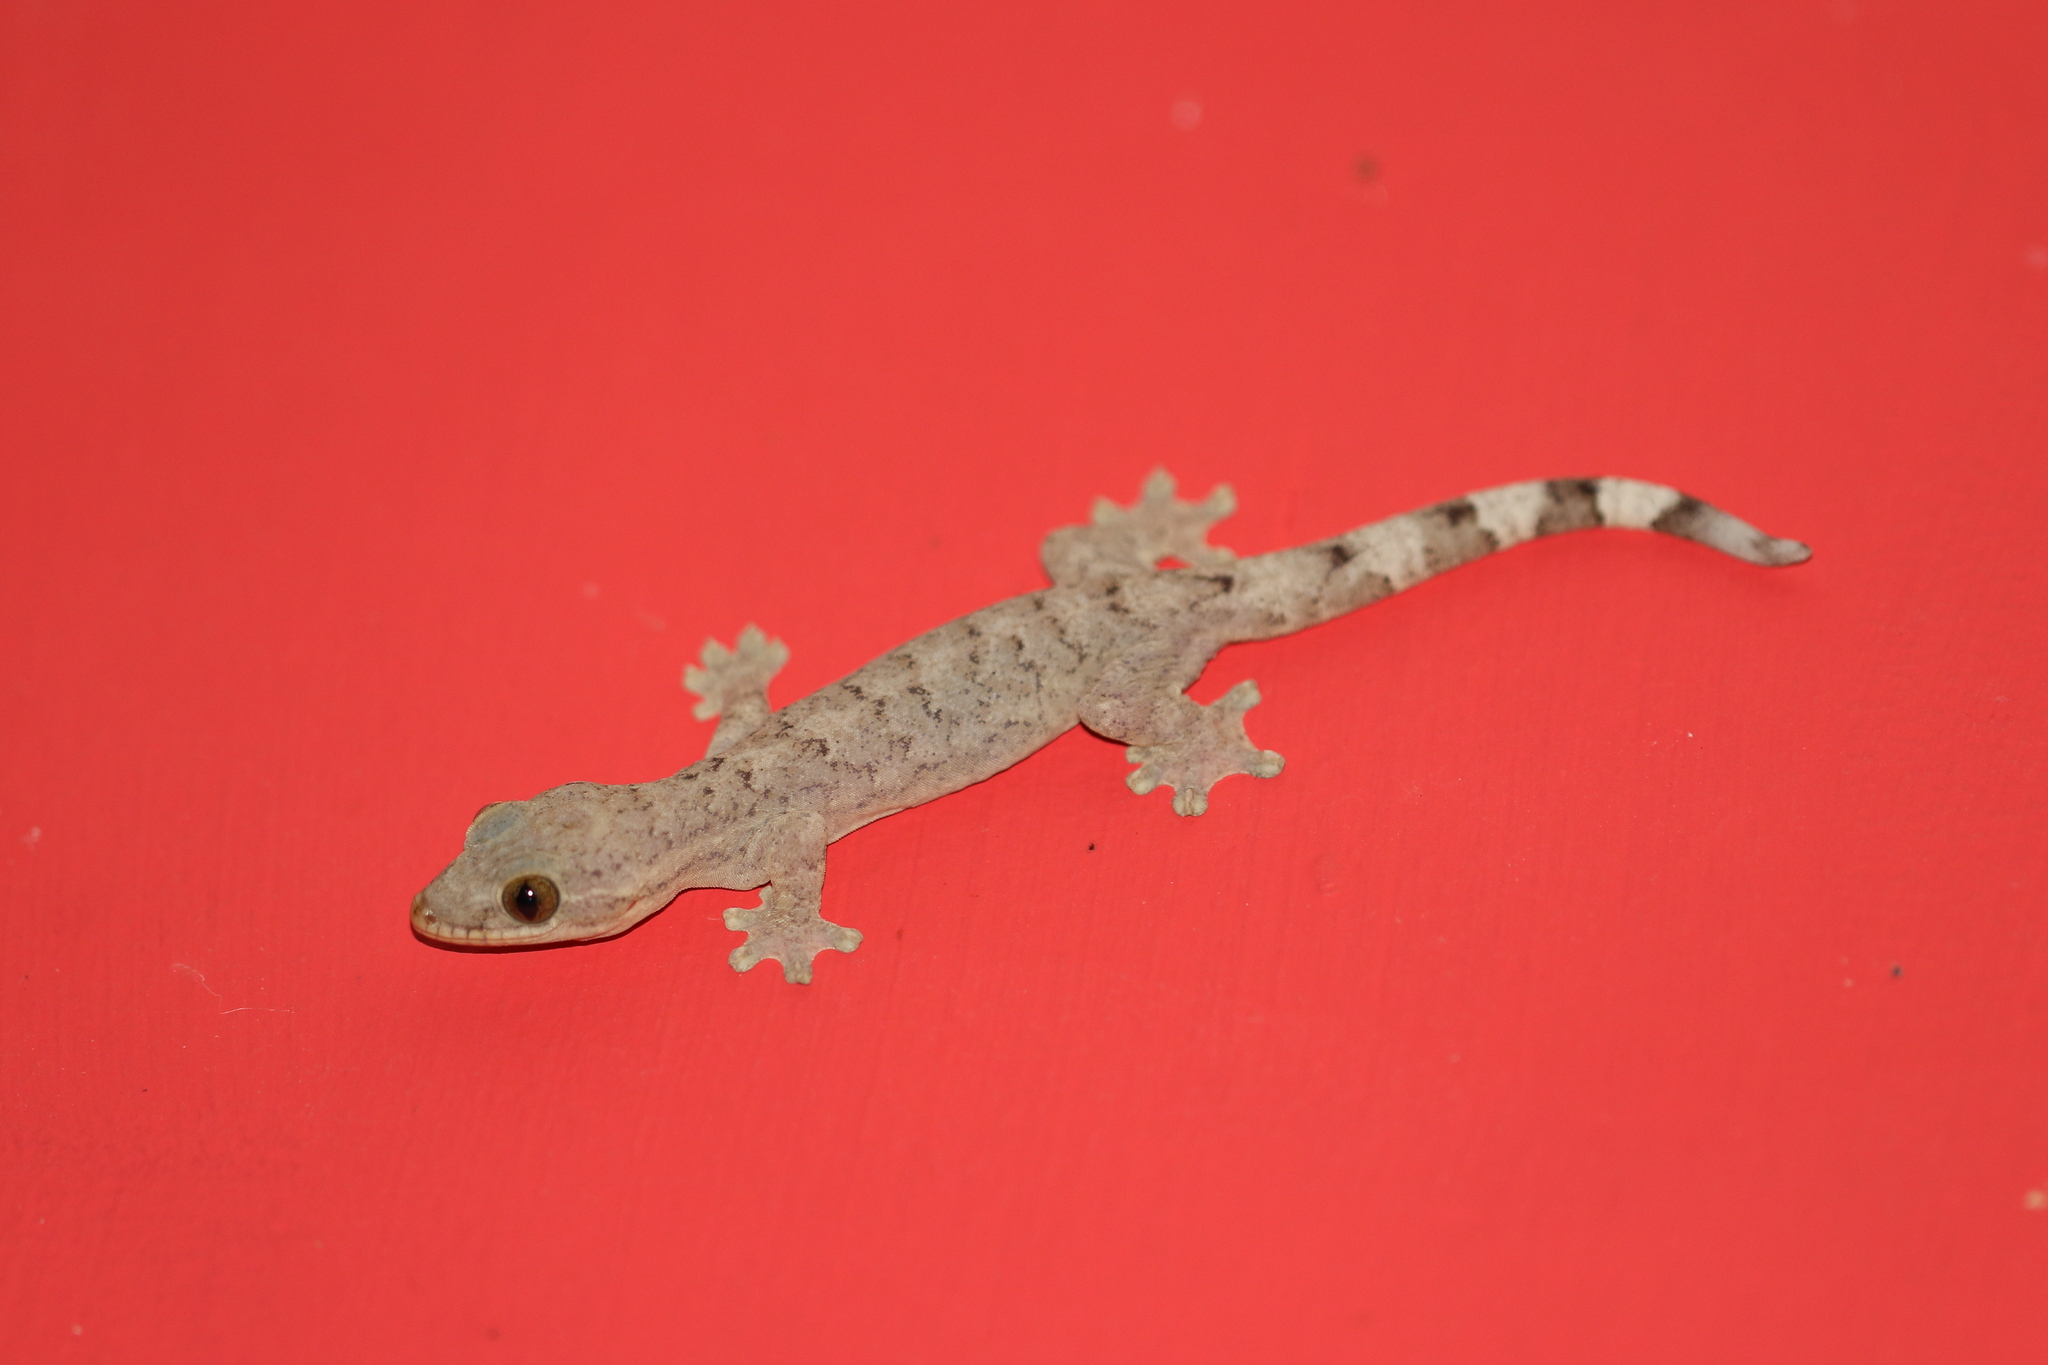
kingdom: Animalia
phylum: Chordata
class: Squamata
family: Phyllodactylidae
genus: Thecadactylus
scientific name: Thecadactylus rapicauda
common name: Turnip-tailed gecko
